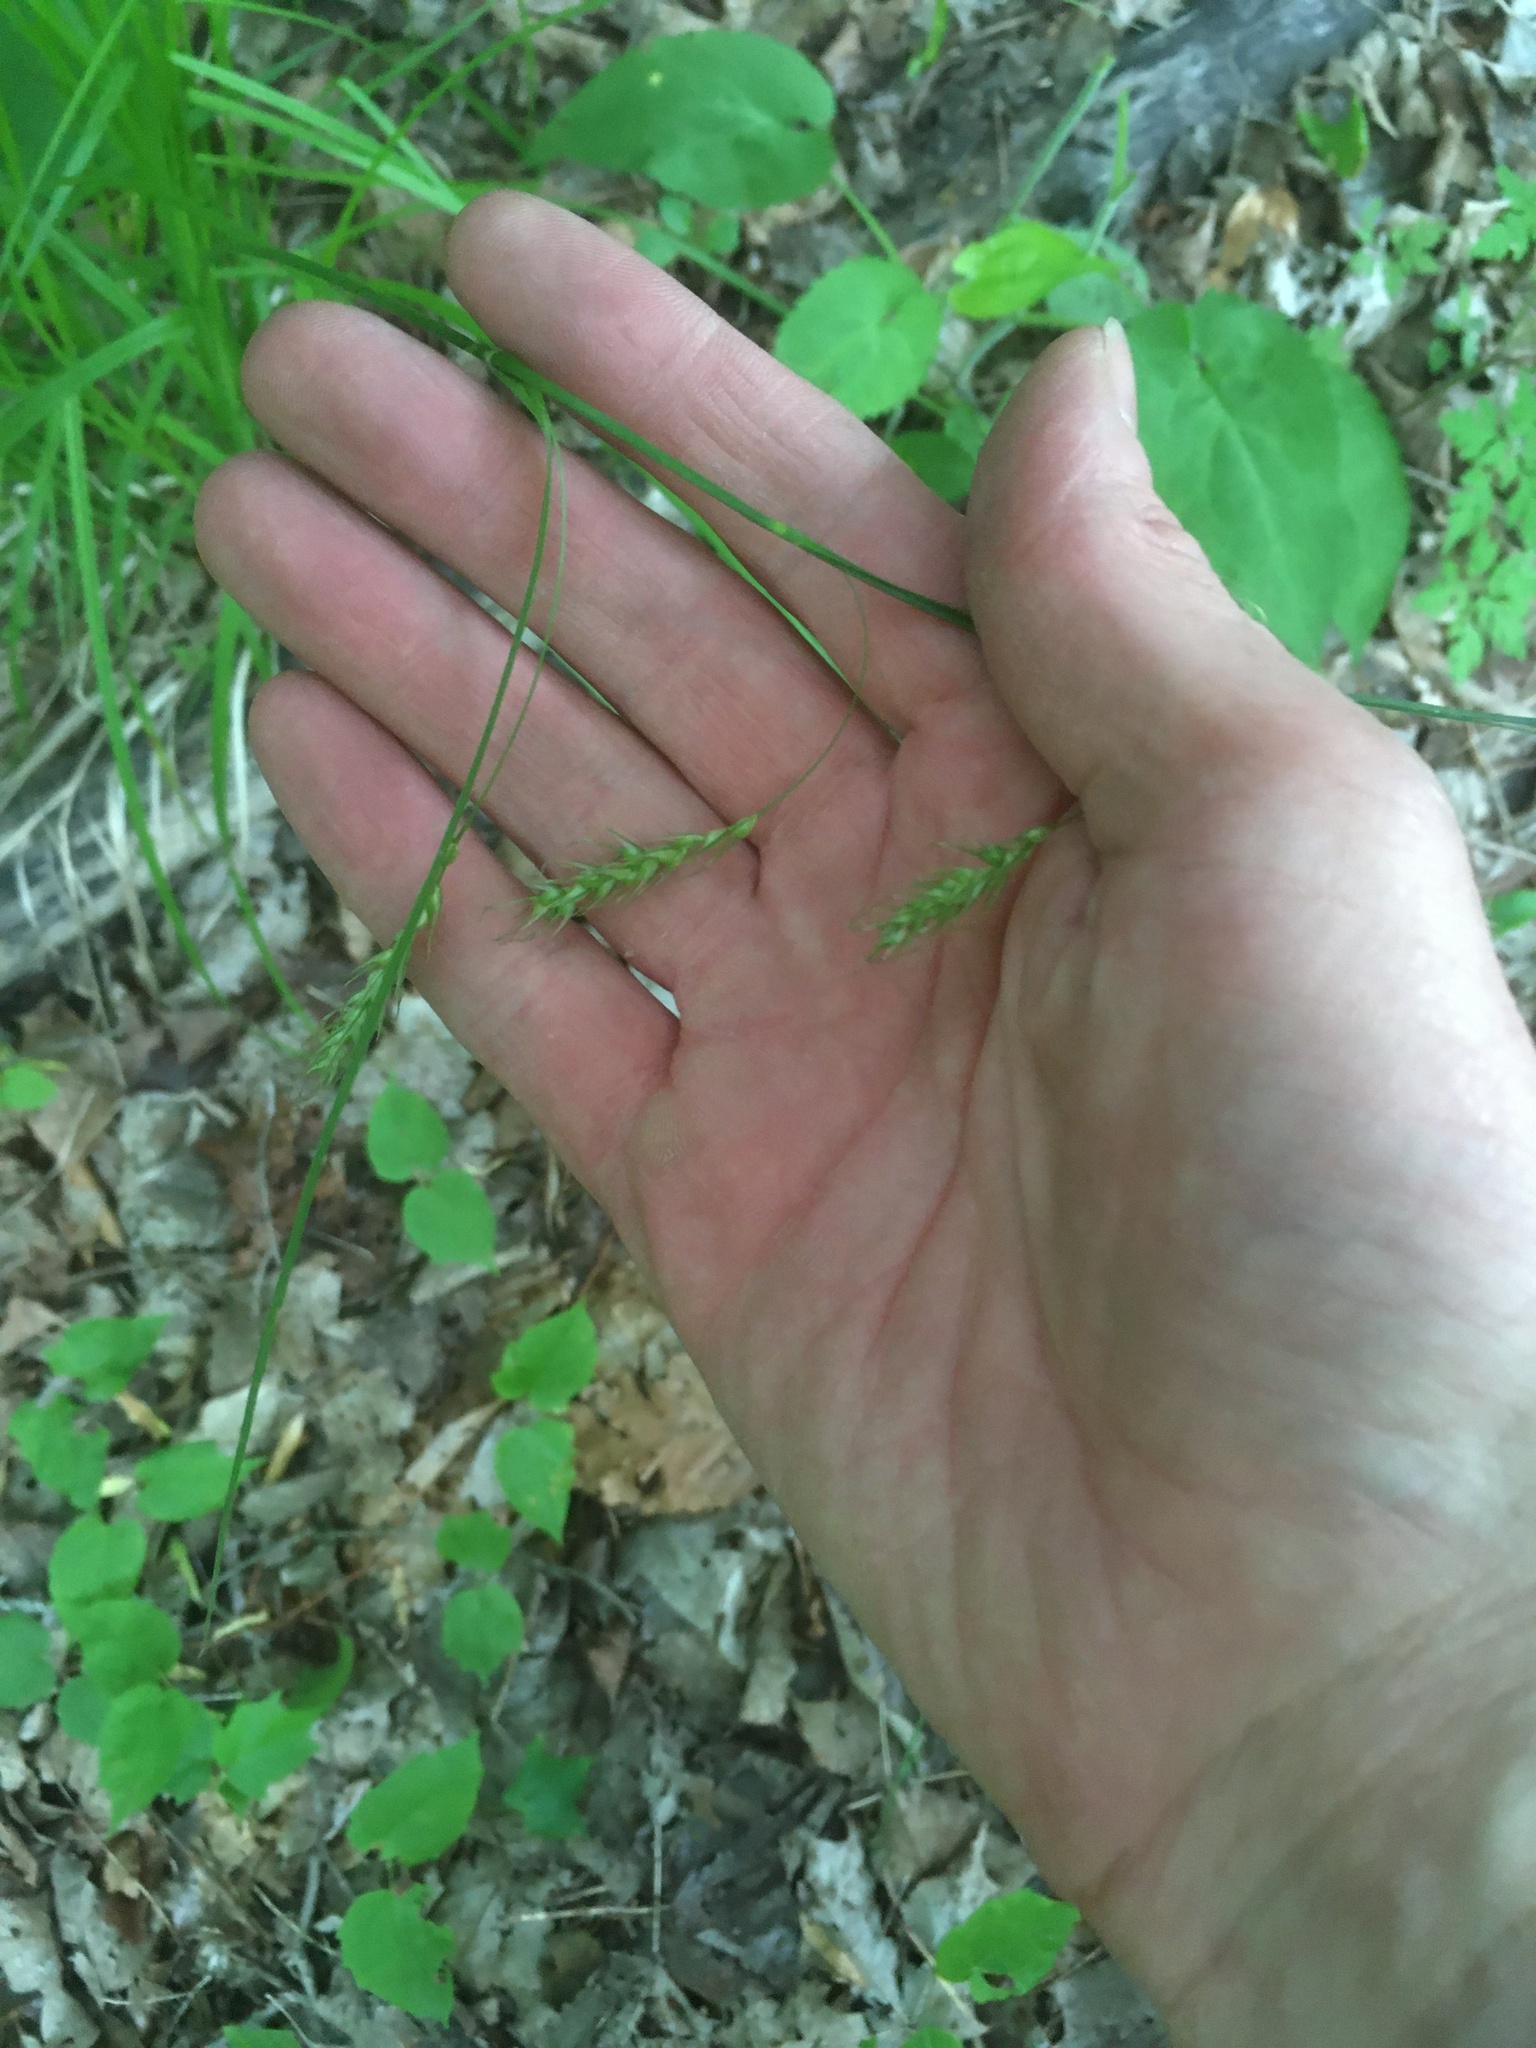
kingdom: Plantae
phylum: Tracheophyta
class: Liliopsida
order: Poales
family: Cyperaceae
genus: Carex
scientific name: Carex sprengelii
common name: Long-beaked sedge
